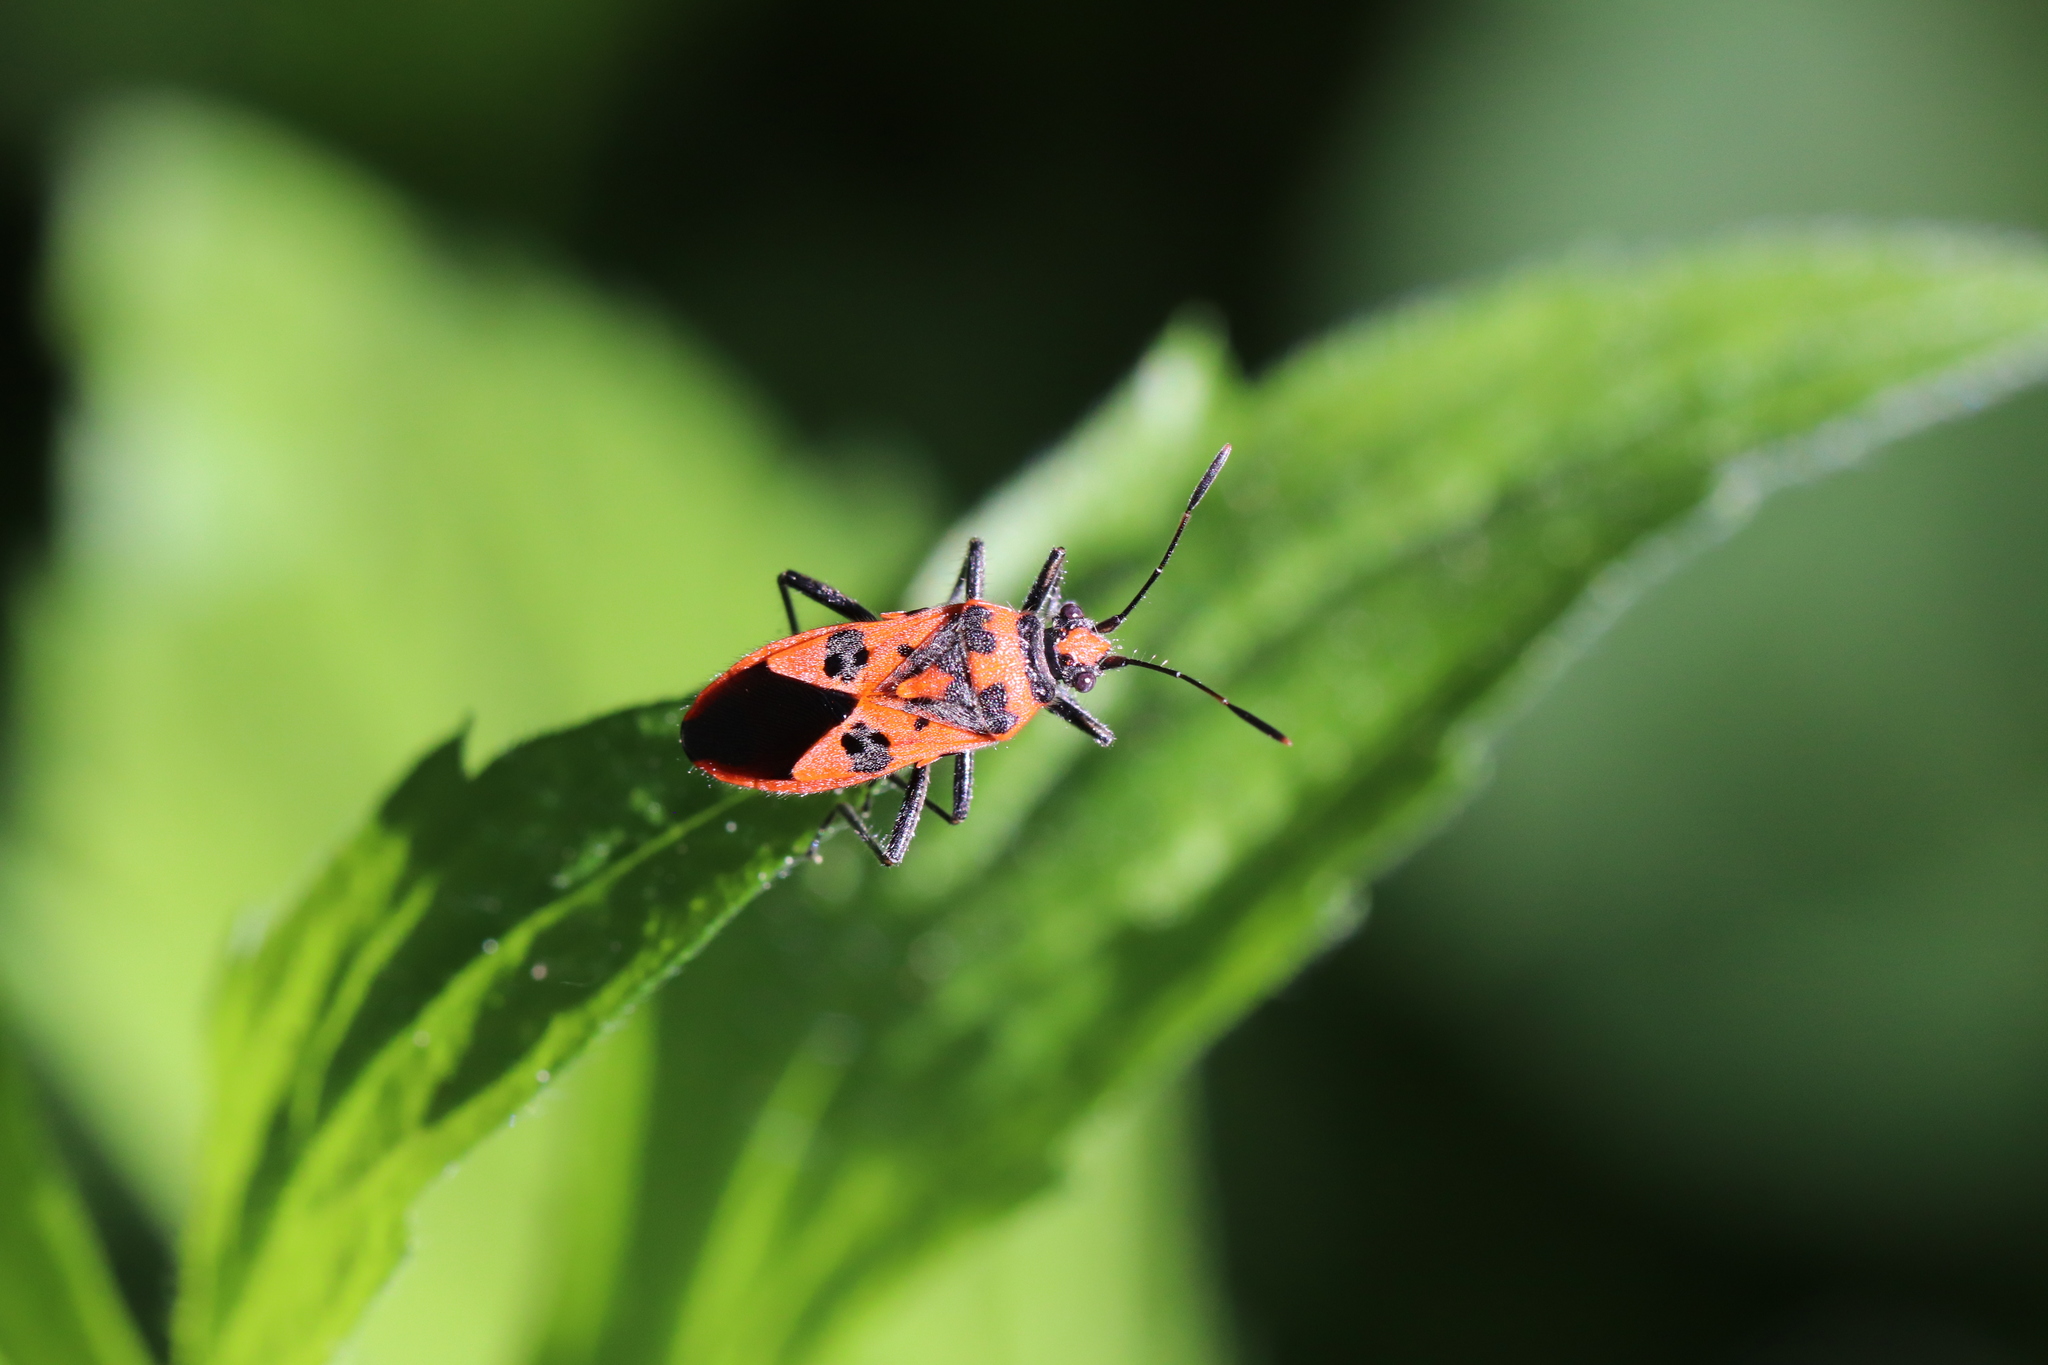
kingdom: Animalia
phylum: Arthropoda
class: Insecta
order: Hemiptera
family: Rhopalidae
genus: Corizus
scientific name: Corizus hyoscyami
